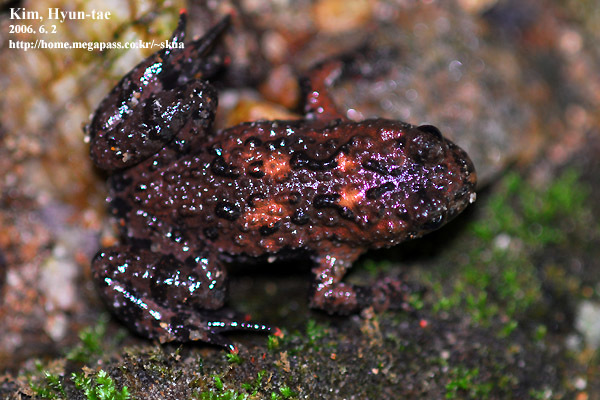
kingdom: Animalia
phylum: Chordata
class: Amphibia
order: Anura
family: Bombinatoridae
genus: Bombina
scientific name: Bombina orientalis
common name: Oriental firebelly toad
